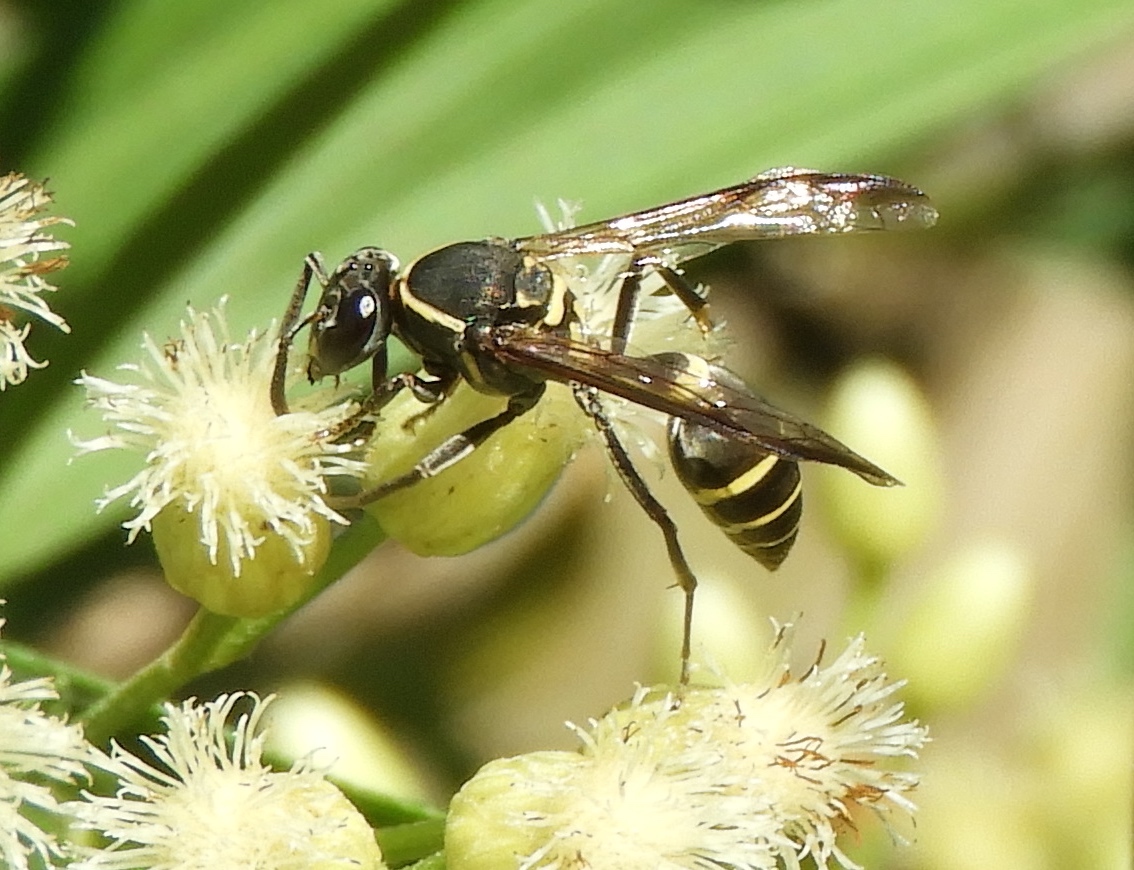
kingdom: Animalia
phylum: Arthropoda
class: Insecta
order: Hymenoptera
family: Vespidae
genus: Myrapetra
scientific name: Myrapetra
